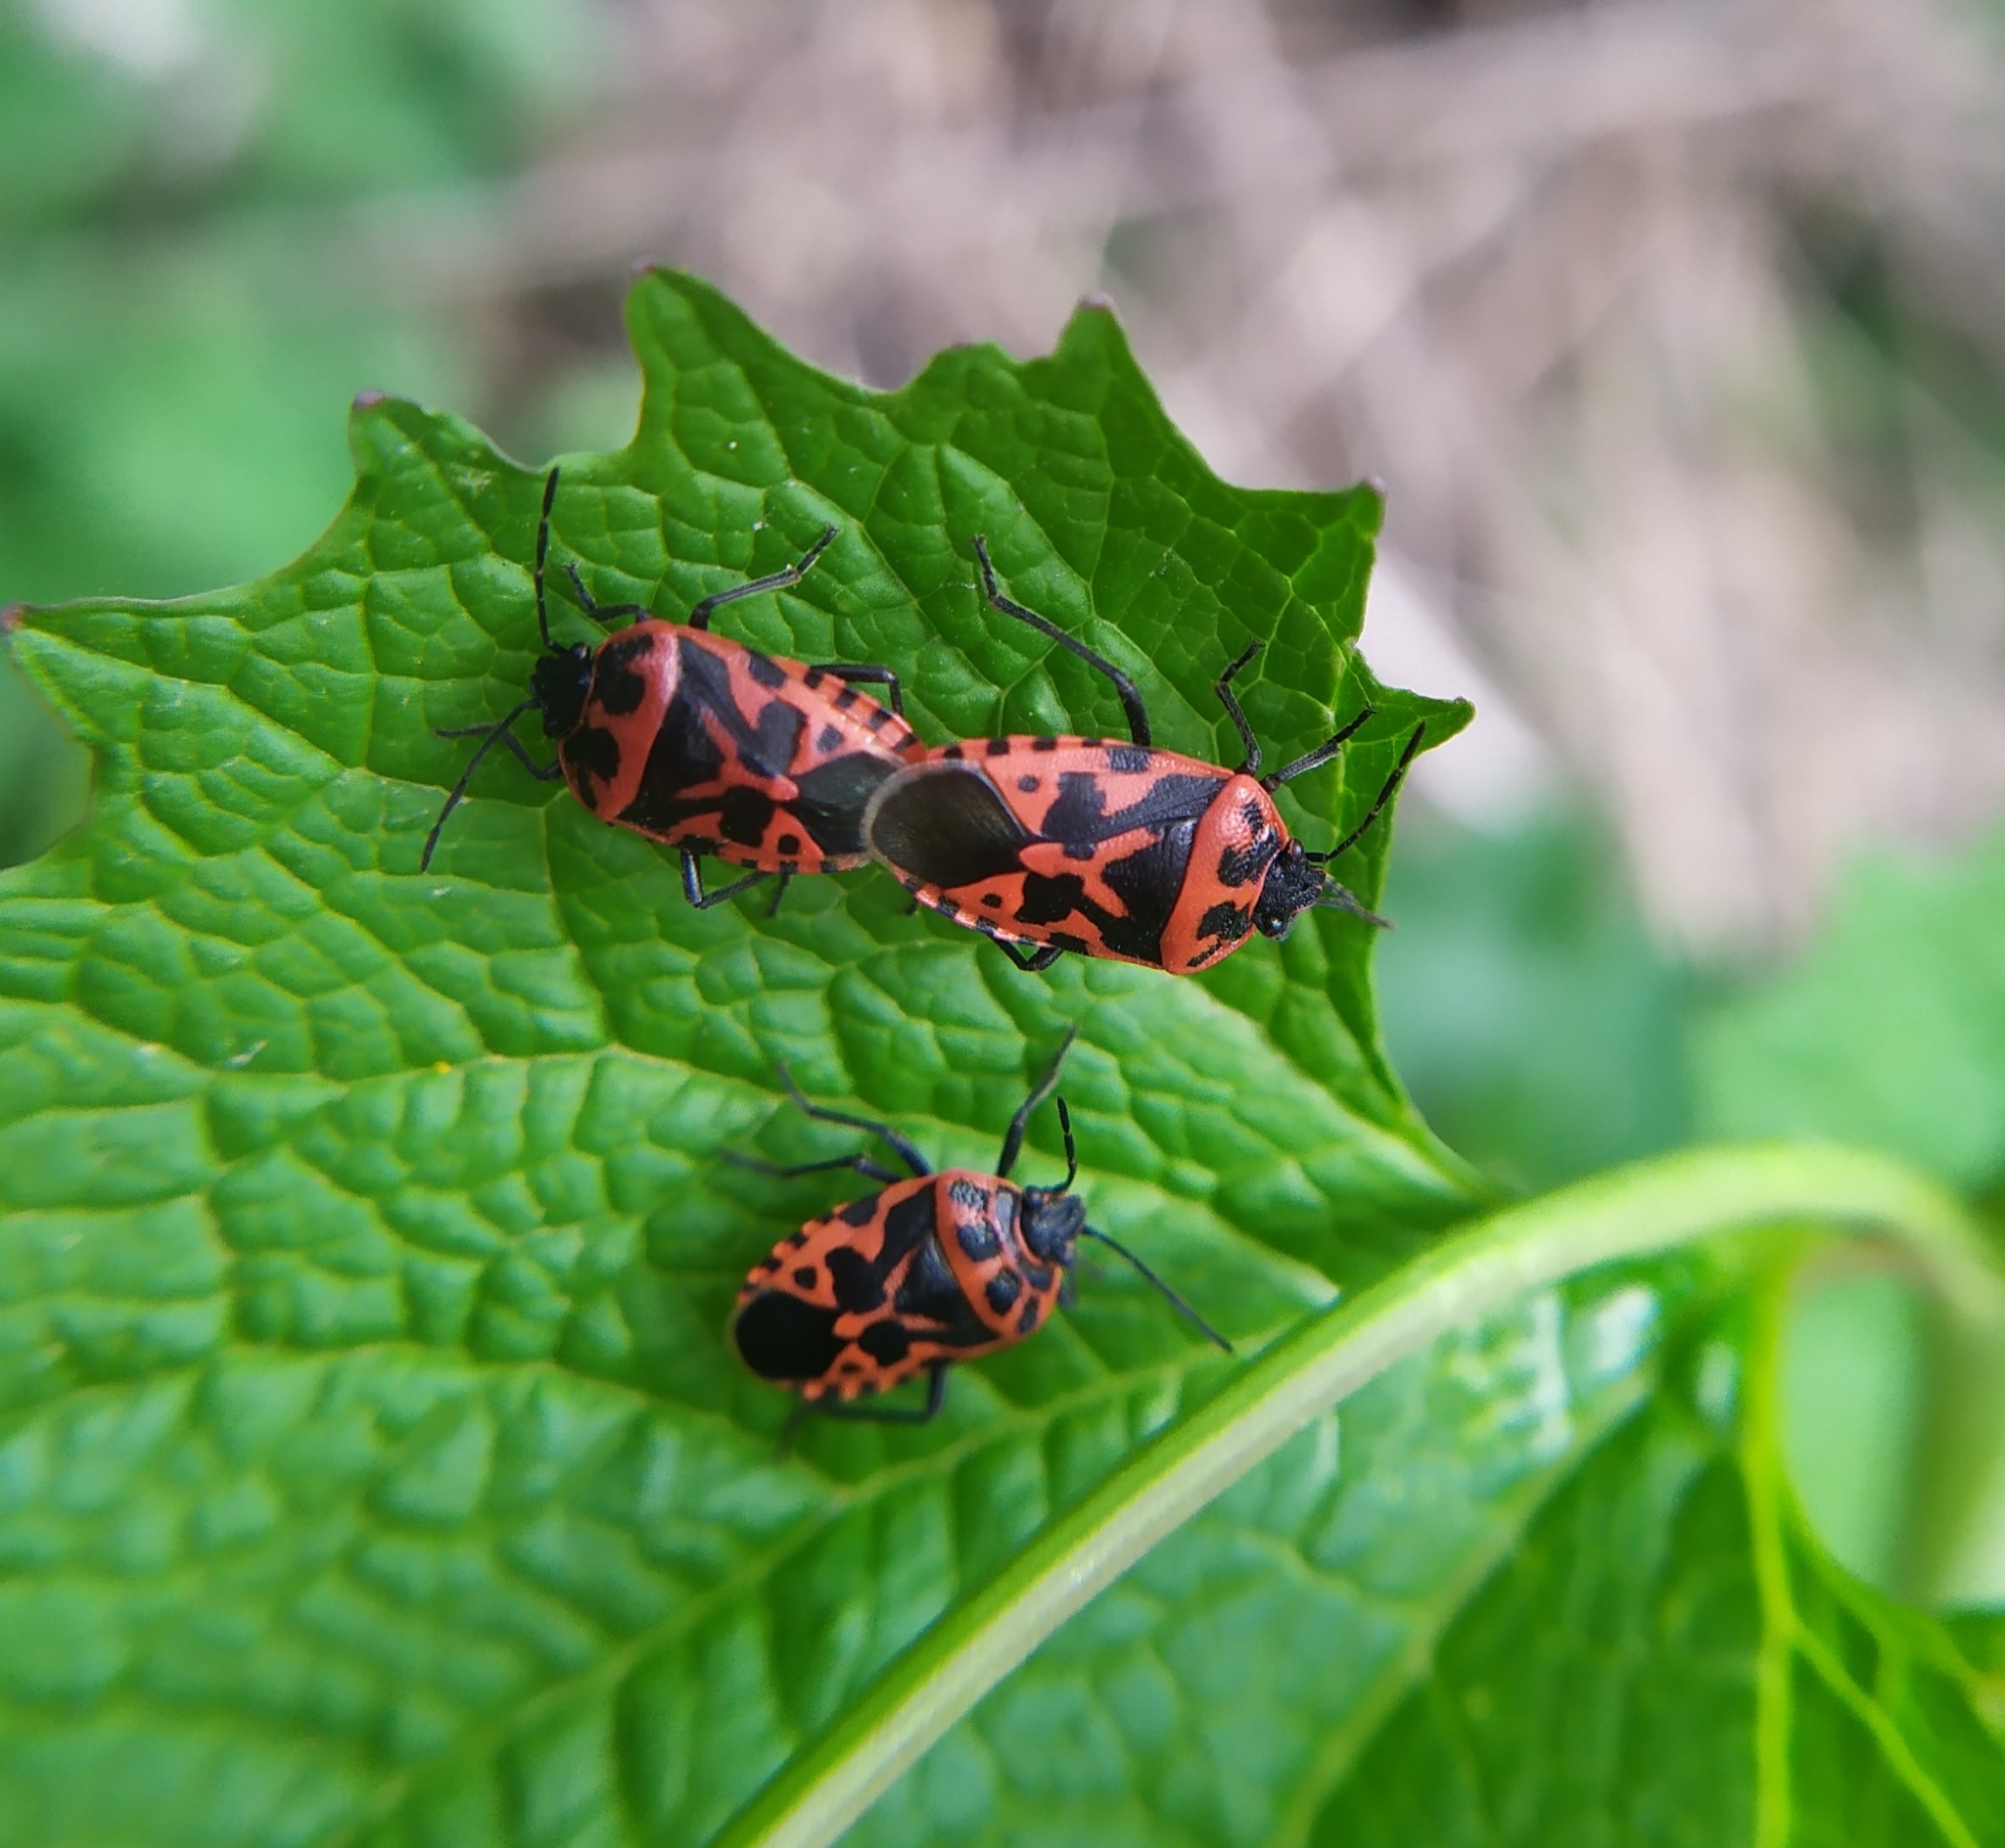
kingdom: Animalia
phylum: Arthropoda
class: Insecta
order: Hemiptera
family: Pentatomidae
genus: Eurydema
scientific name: Eurydema ventralis
